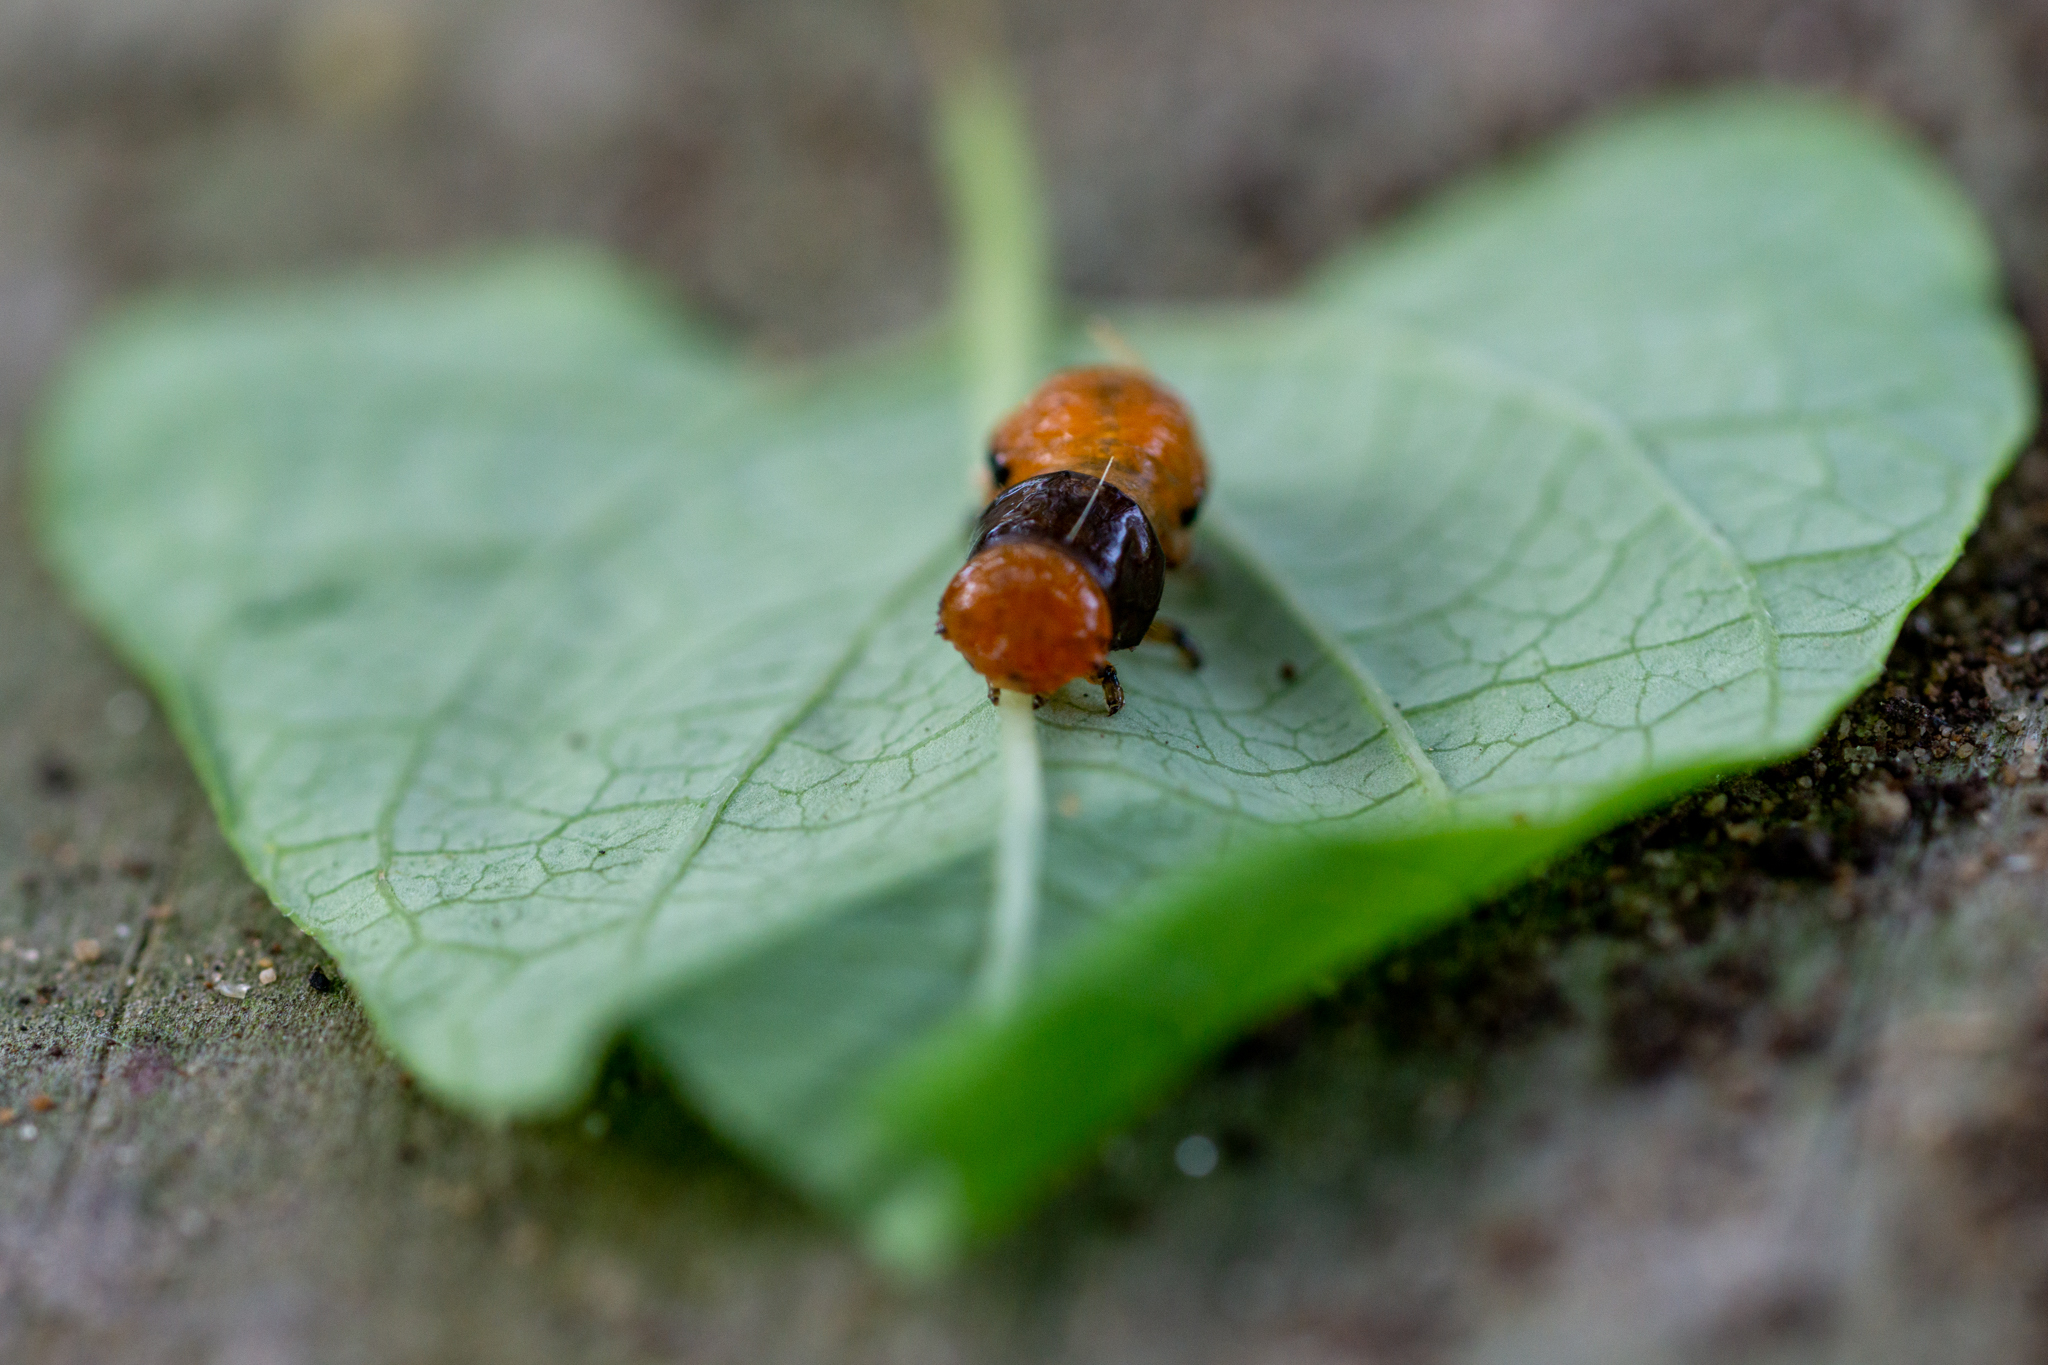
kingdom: Animalia
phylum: Arthropoda
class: Insecta
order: Coleoptera
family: Chrysomelidae
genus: Labidomera
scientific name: Labidomera clivicollis
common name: Swamp milkweed leaf beetle
